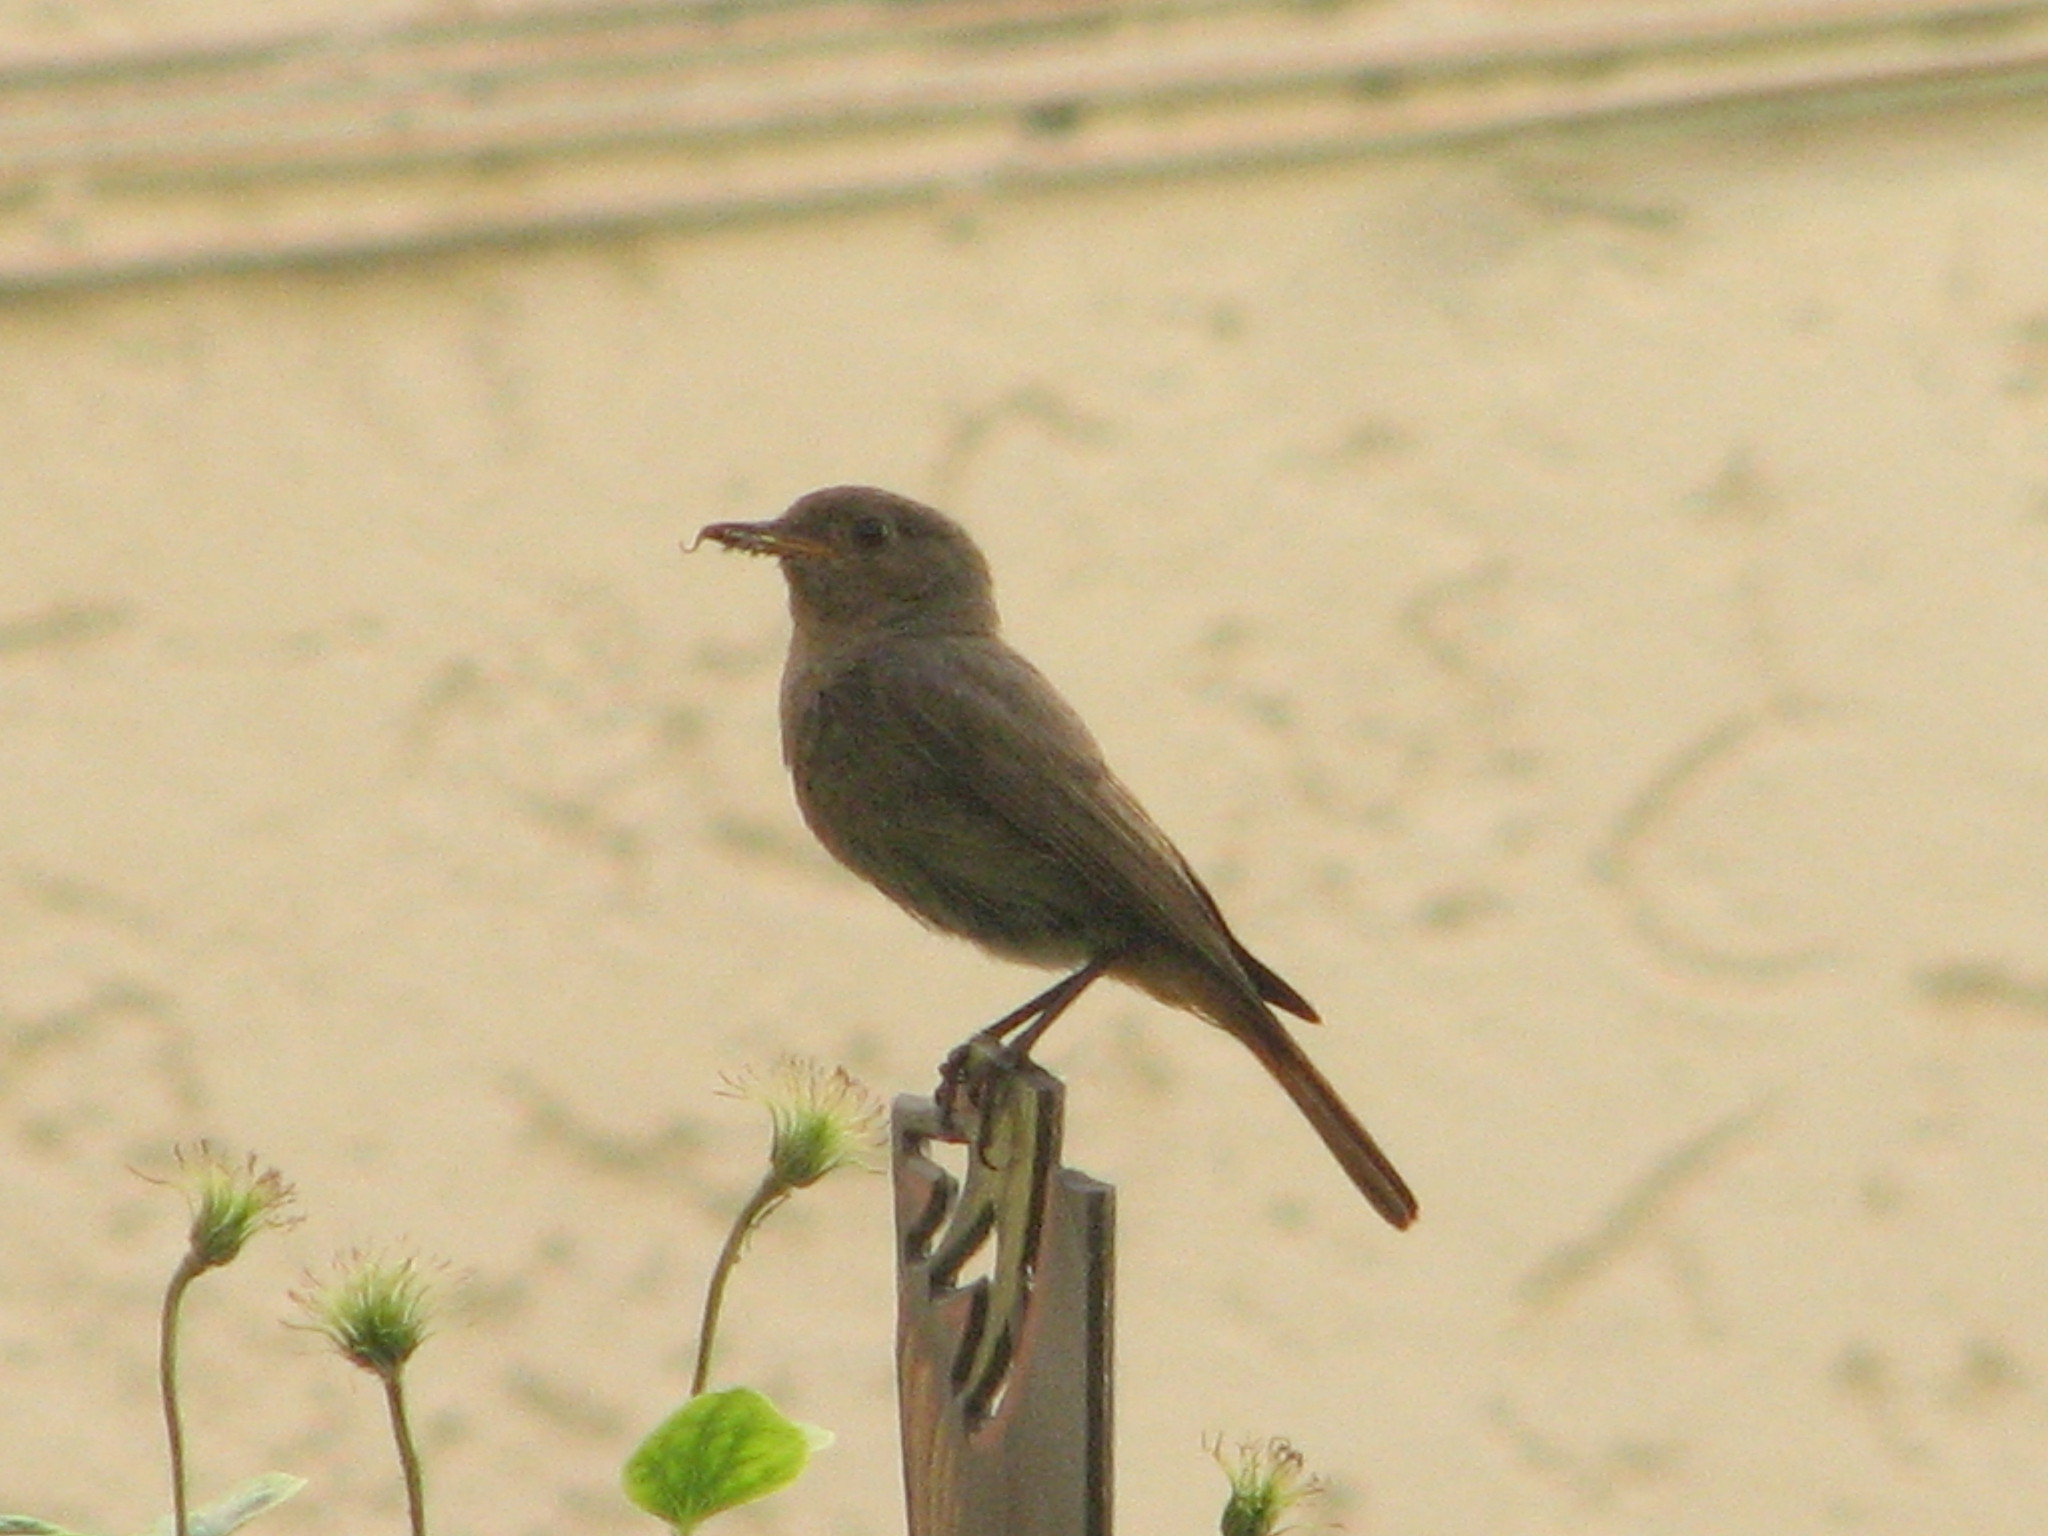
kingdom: Animalia
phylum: Chordata
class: Aves
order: Passeriformes
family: Muscicapidae
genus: Phoenicurus
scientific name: Phoenicurus ochruros
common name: Black redstart
